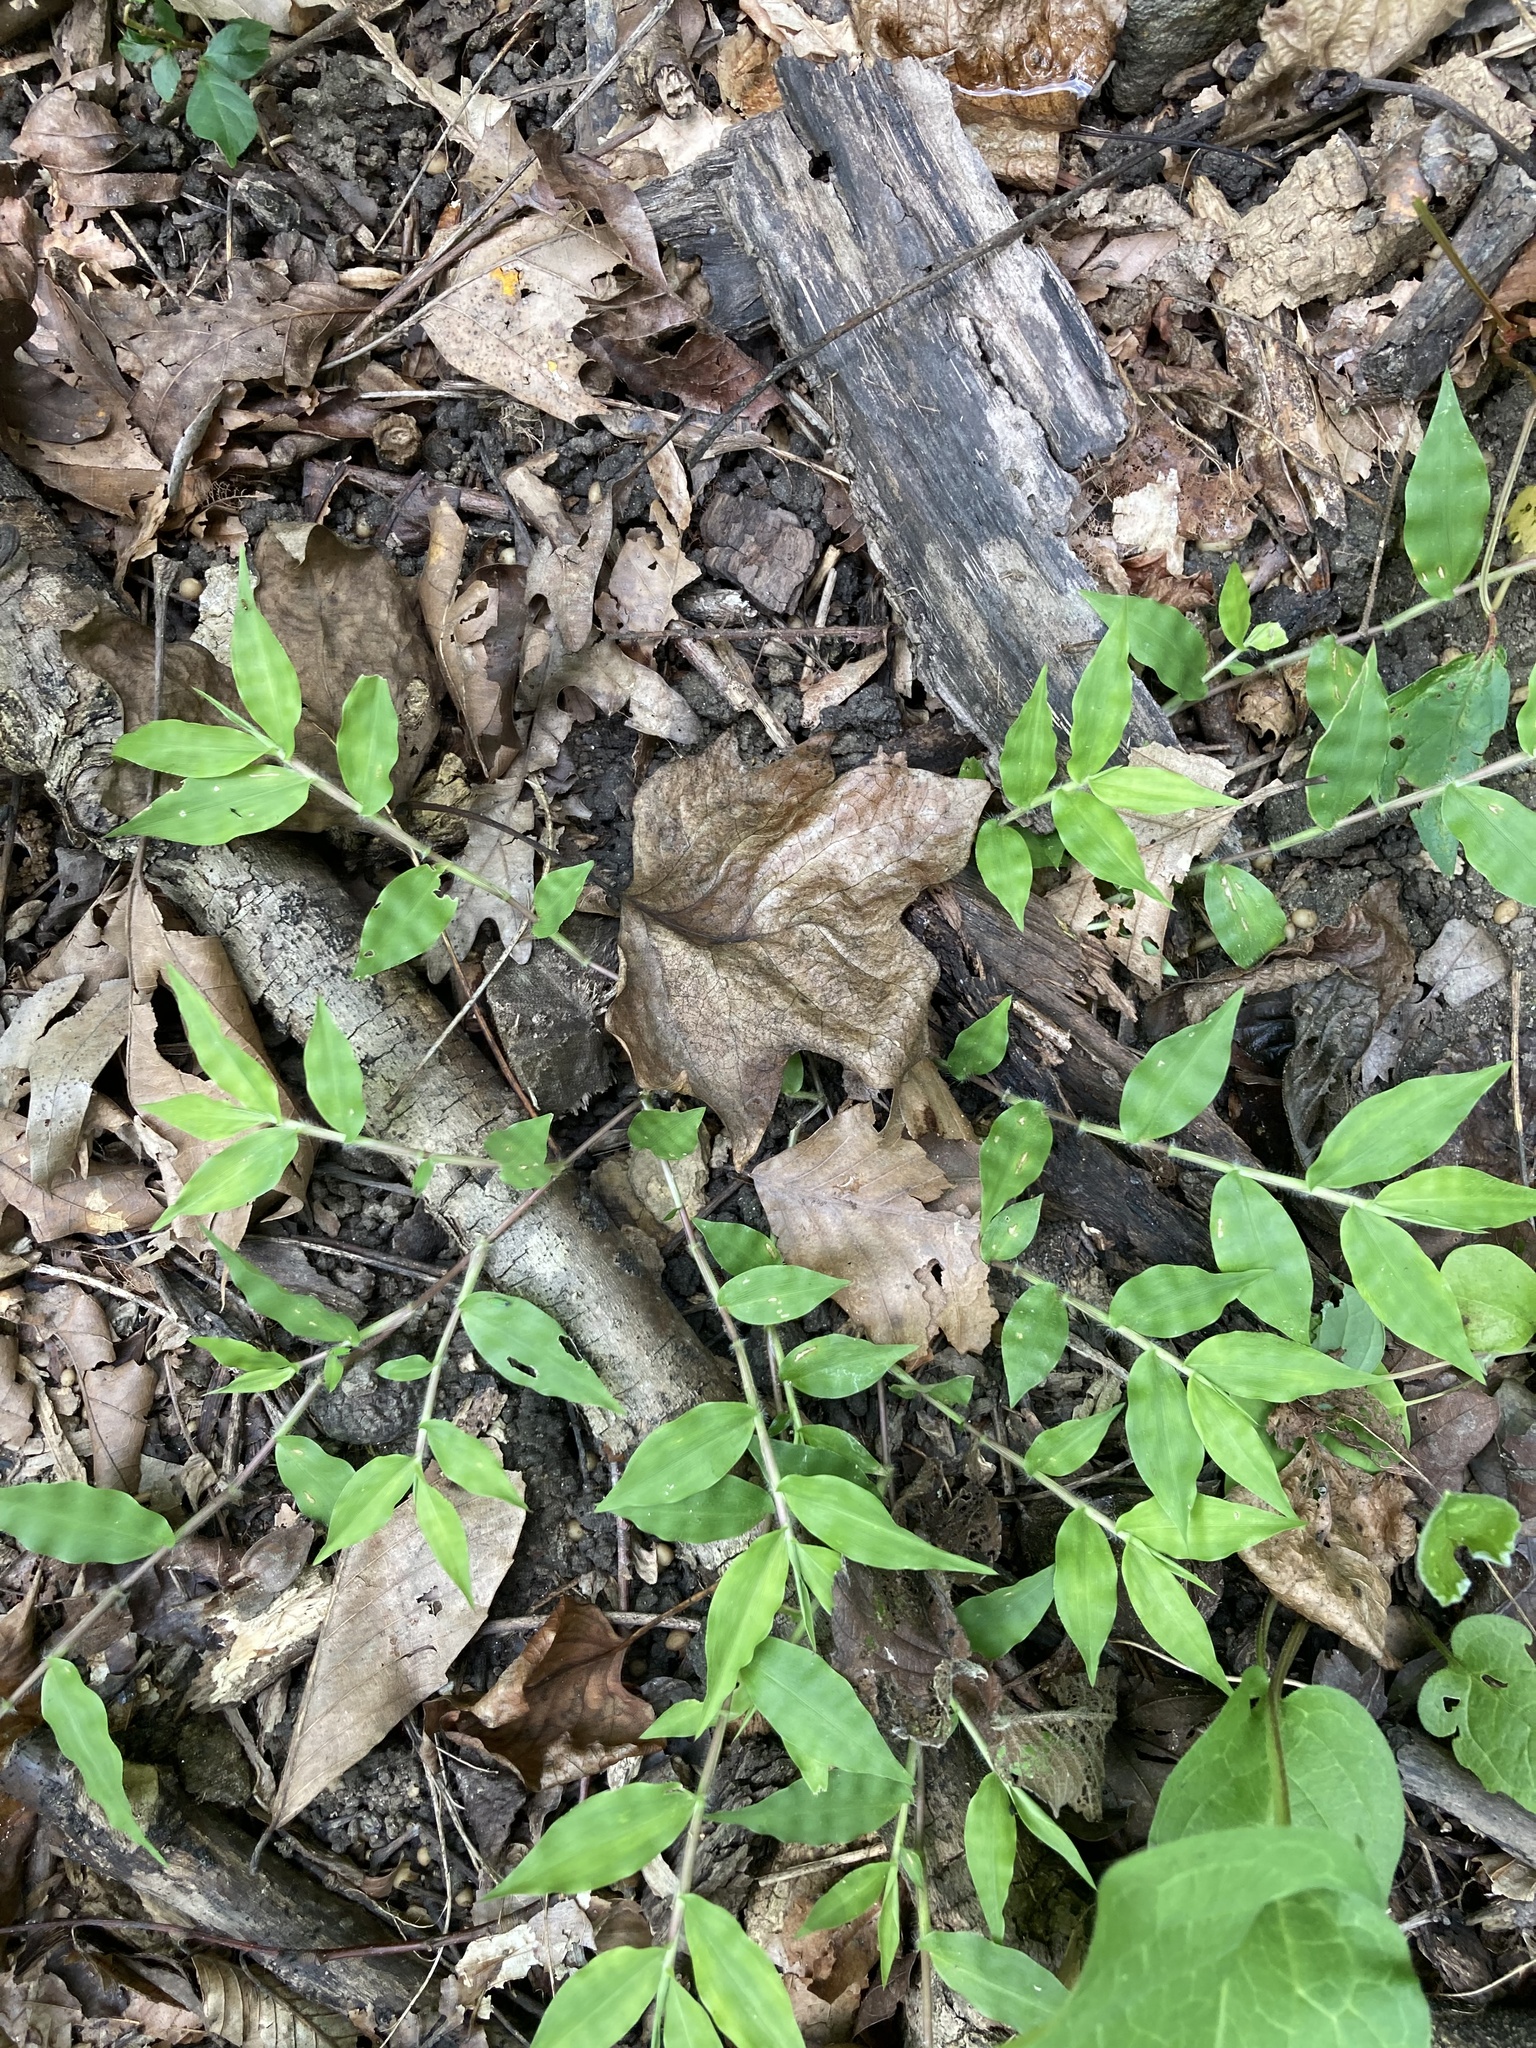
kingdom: Plantae
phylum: Tracheophyta
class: Liliopsida
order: Poales
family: Poaceae
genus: Oplismenus
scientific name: Oplismenus undulatifolius
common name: Wavyleaf basketgrass
